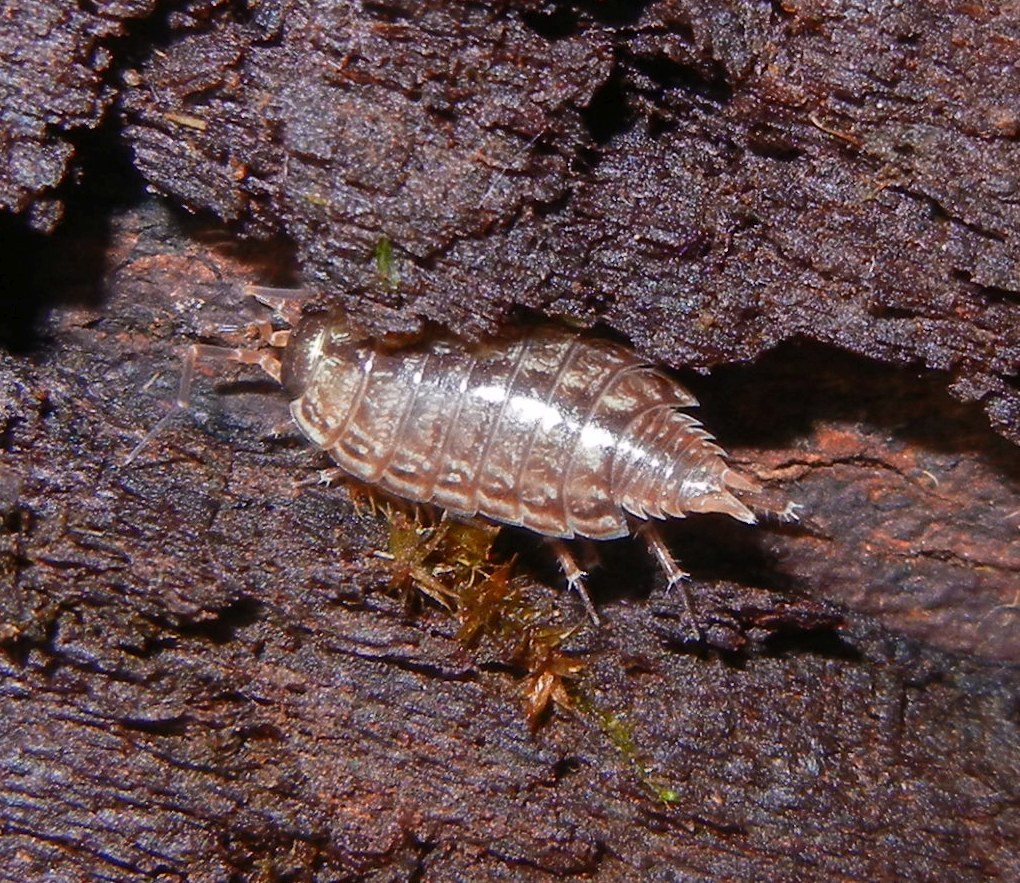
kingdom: Animalia
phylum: Arthropoda
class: Malacostraca
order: Isopoda
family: Philosciidae
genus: Philoscia
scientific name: Philoscia muscorum
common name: Common striped woodlouse
